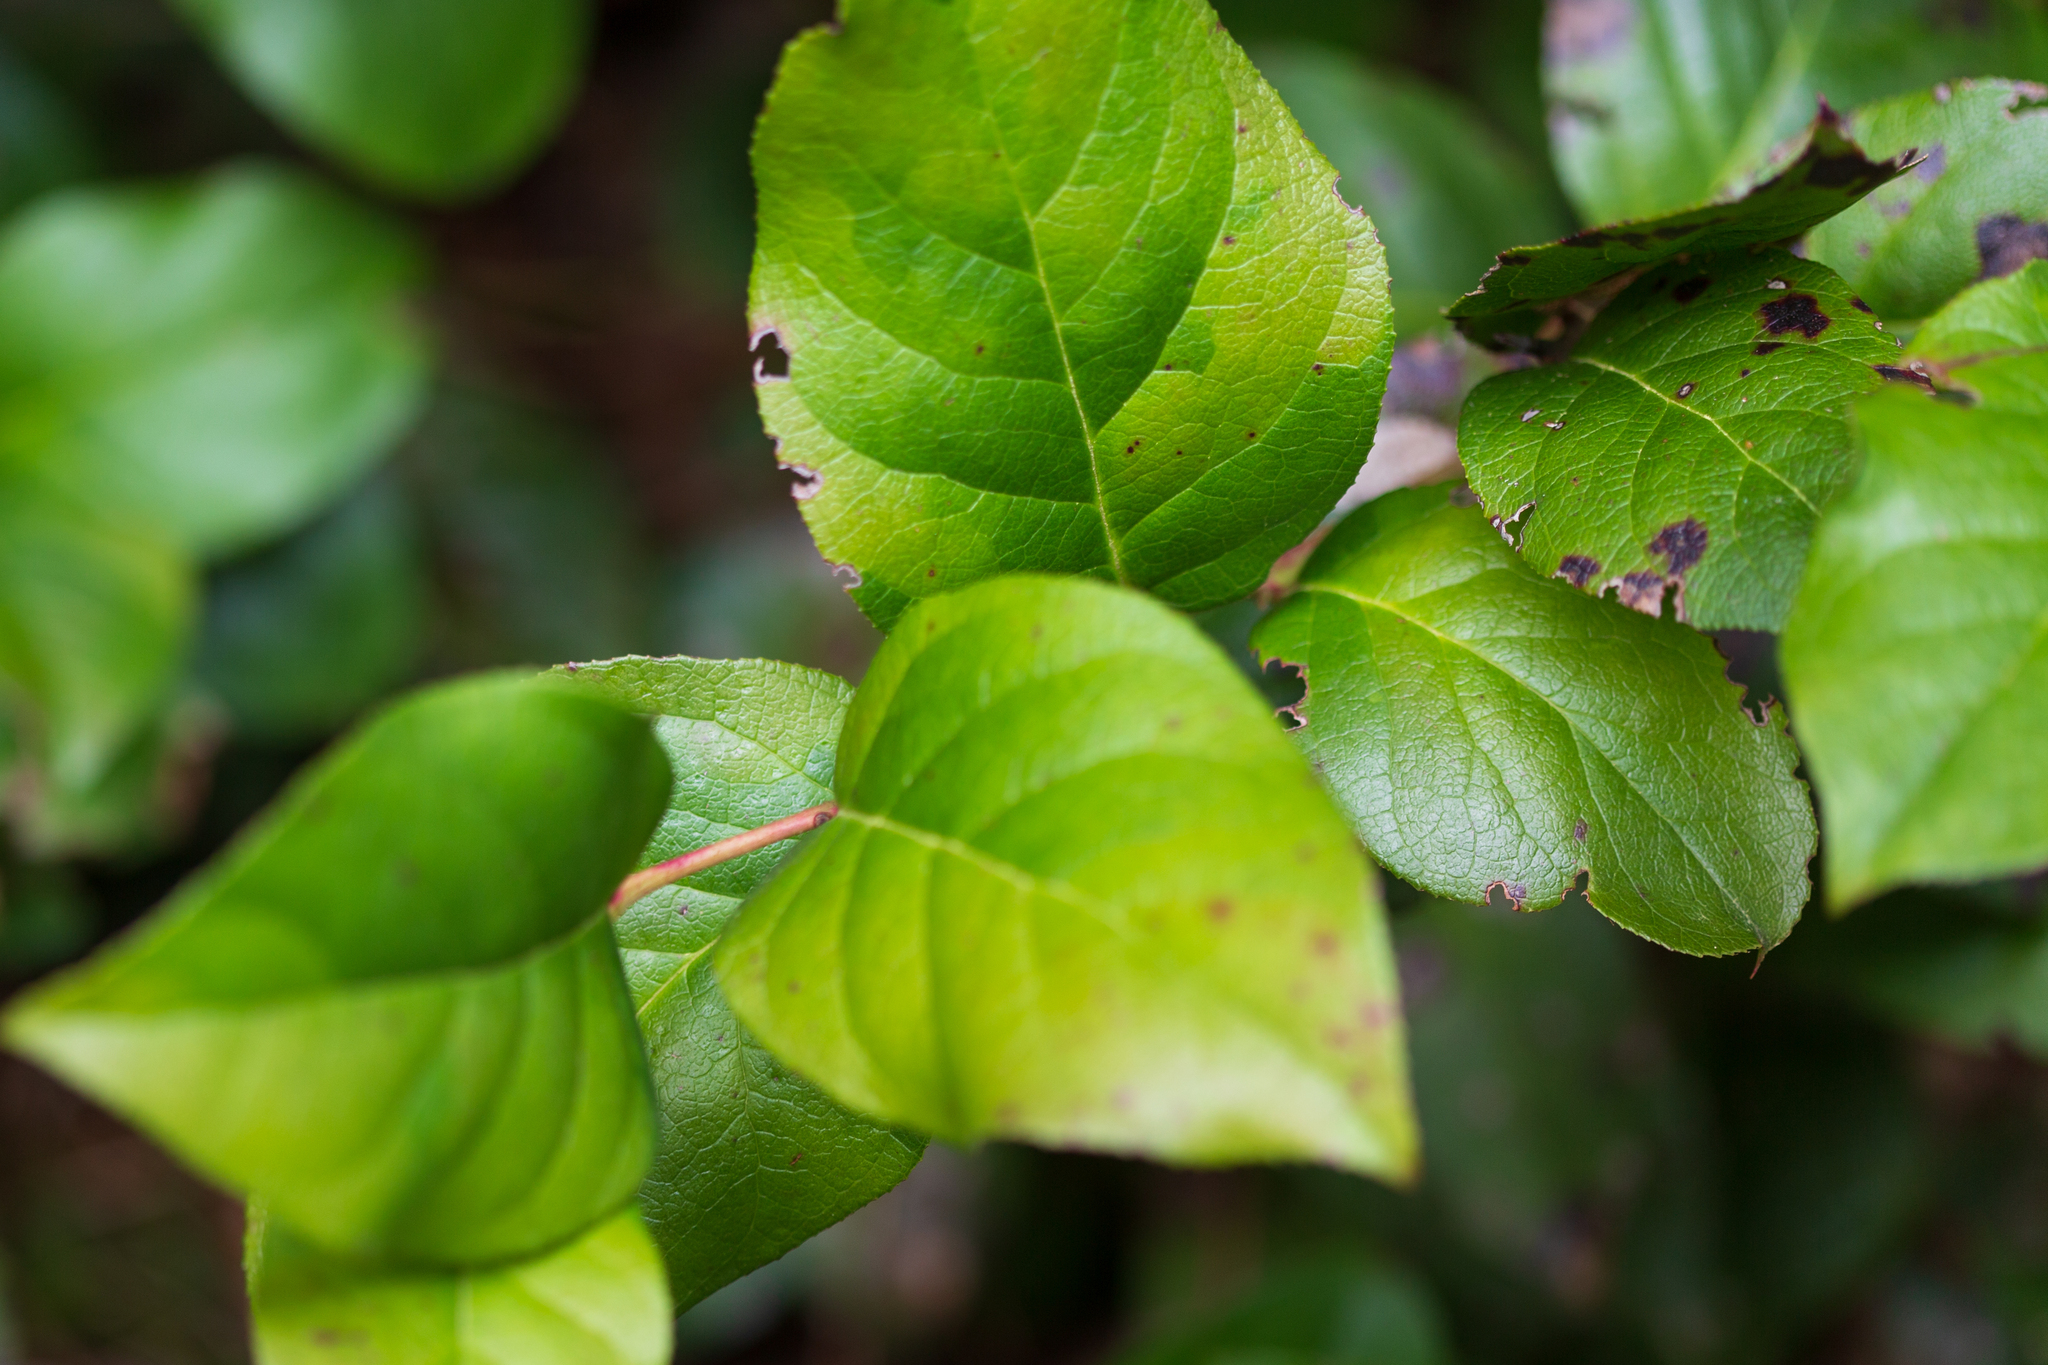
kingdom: Plantae
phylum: Tracheophyta
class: Magnoliopsida
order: Ericales
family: Ericaceae
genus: Gaultheria
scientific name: Gaultheria shallon
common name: Shallon
